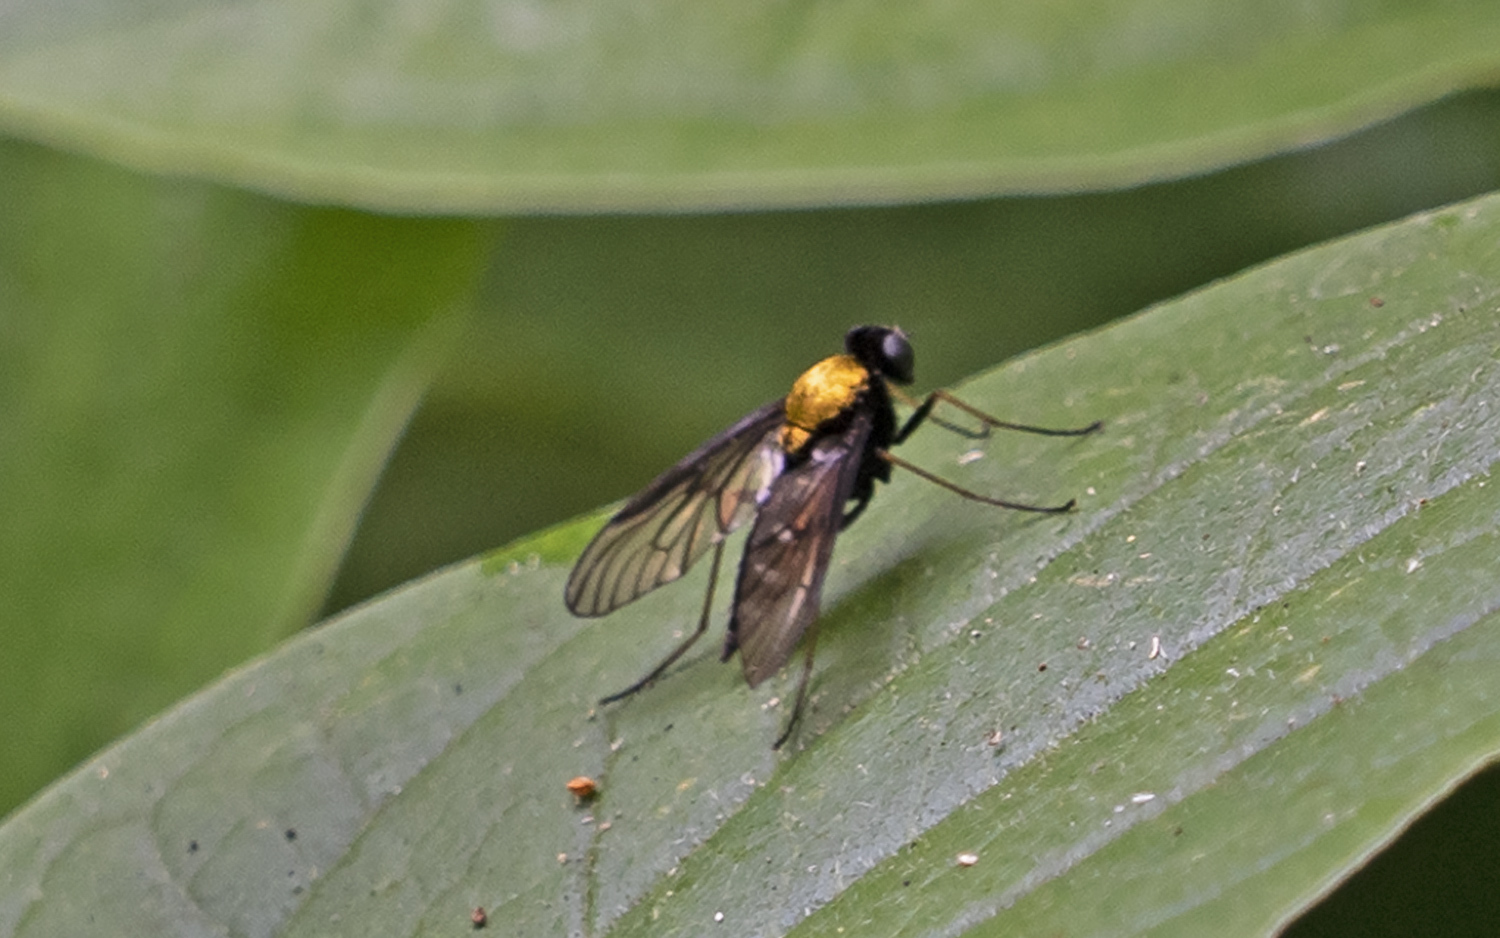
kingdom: Animalia
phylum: Arthropoda
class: Insecta
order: Diptera
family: Rhagionidae
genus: Chrysopilus
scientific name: Chrysopilus thoracicus
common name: Golden-backed snipe fly
